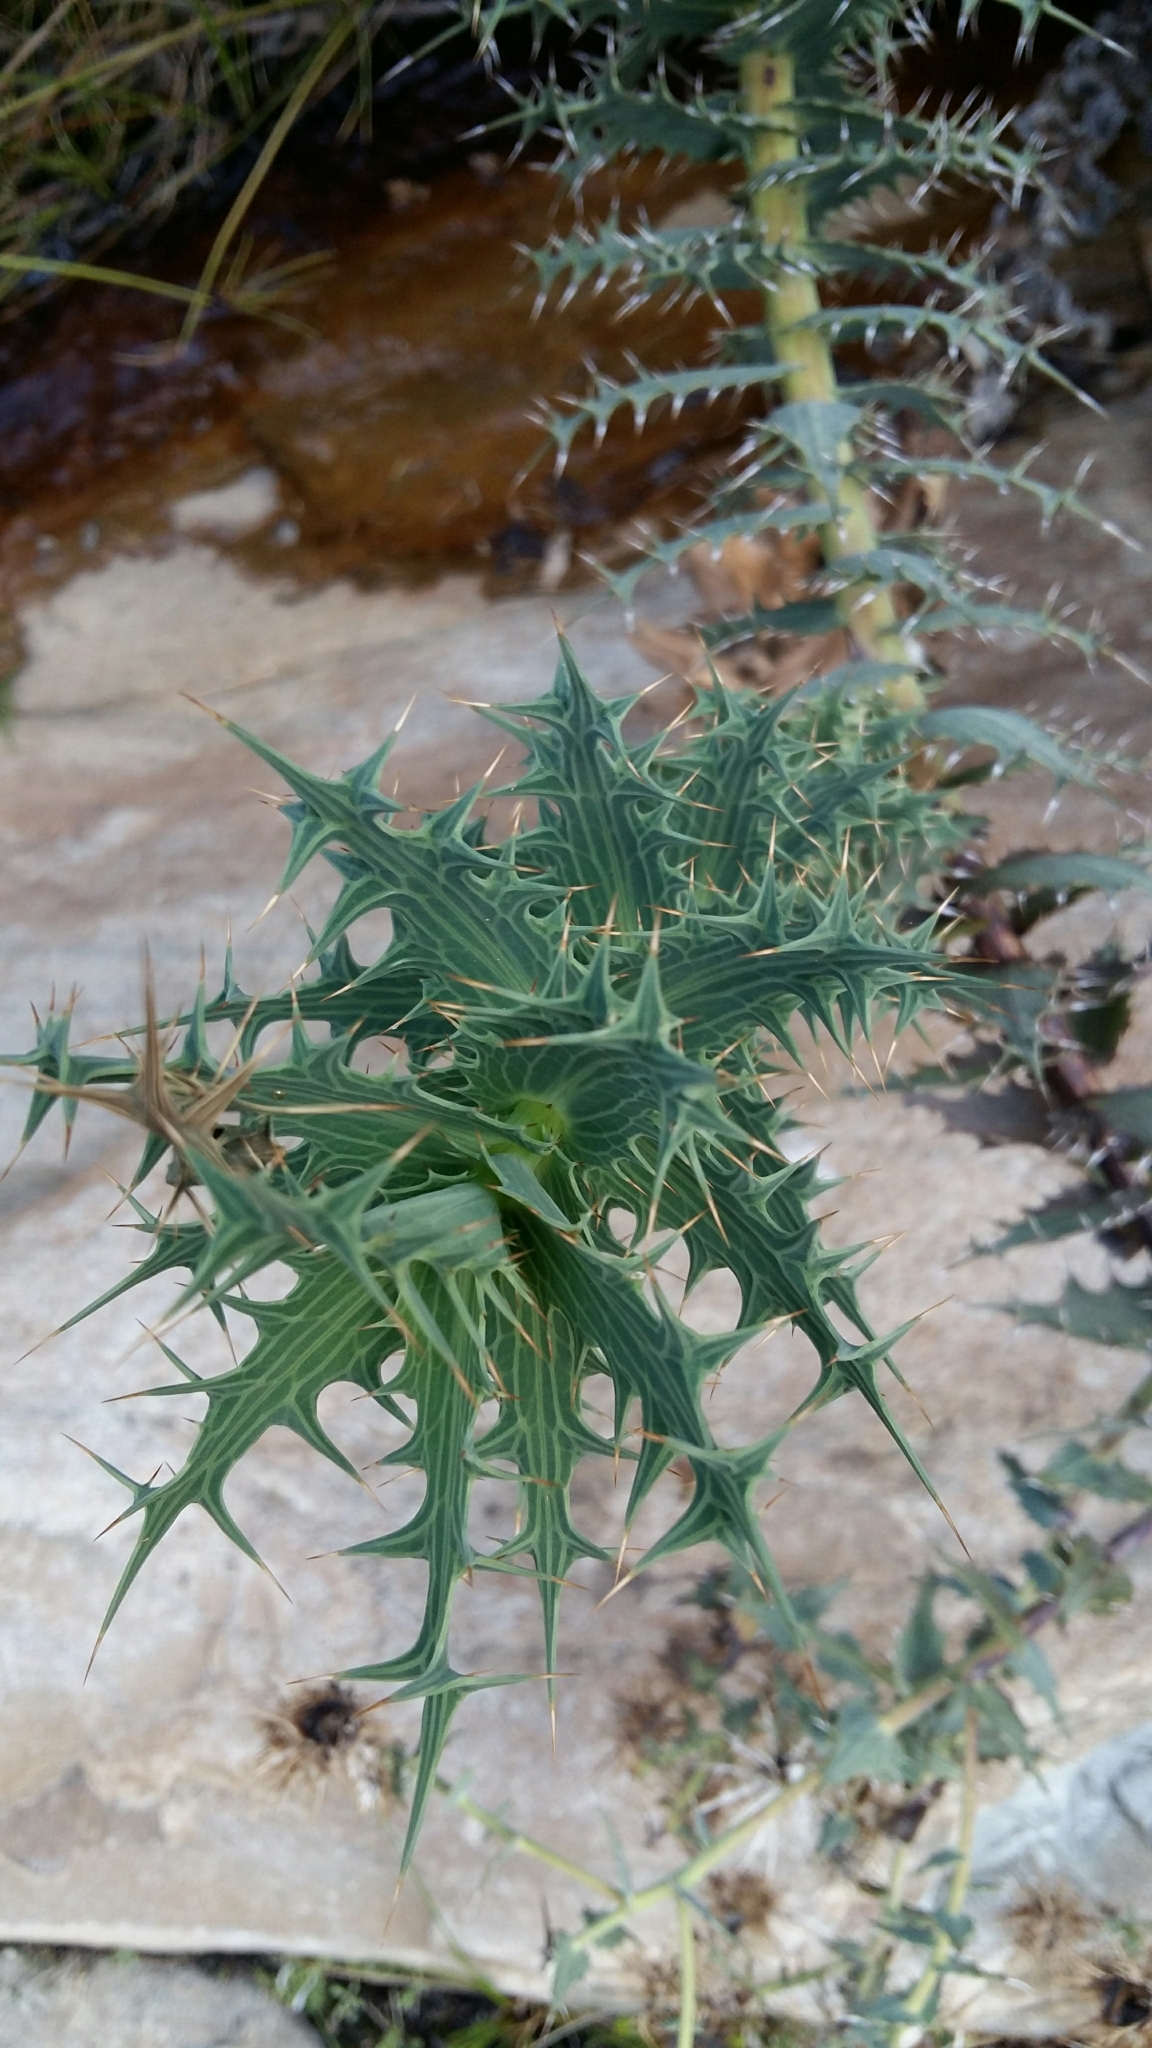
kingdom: Plantae
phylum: Tracheophyta
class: Magnoliopsida
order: Asterales
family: Asteraceae
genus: Berkheya
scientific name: Berkheya cruciata
